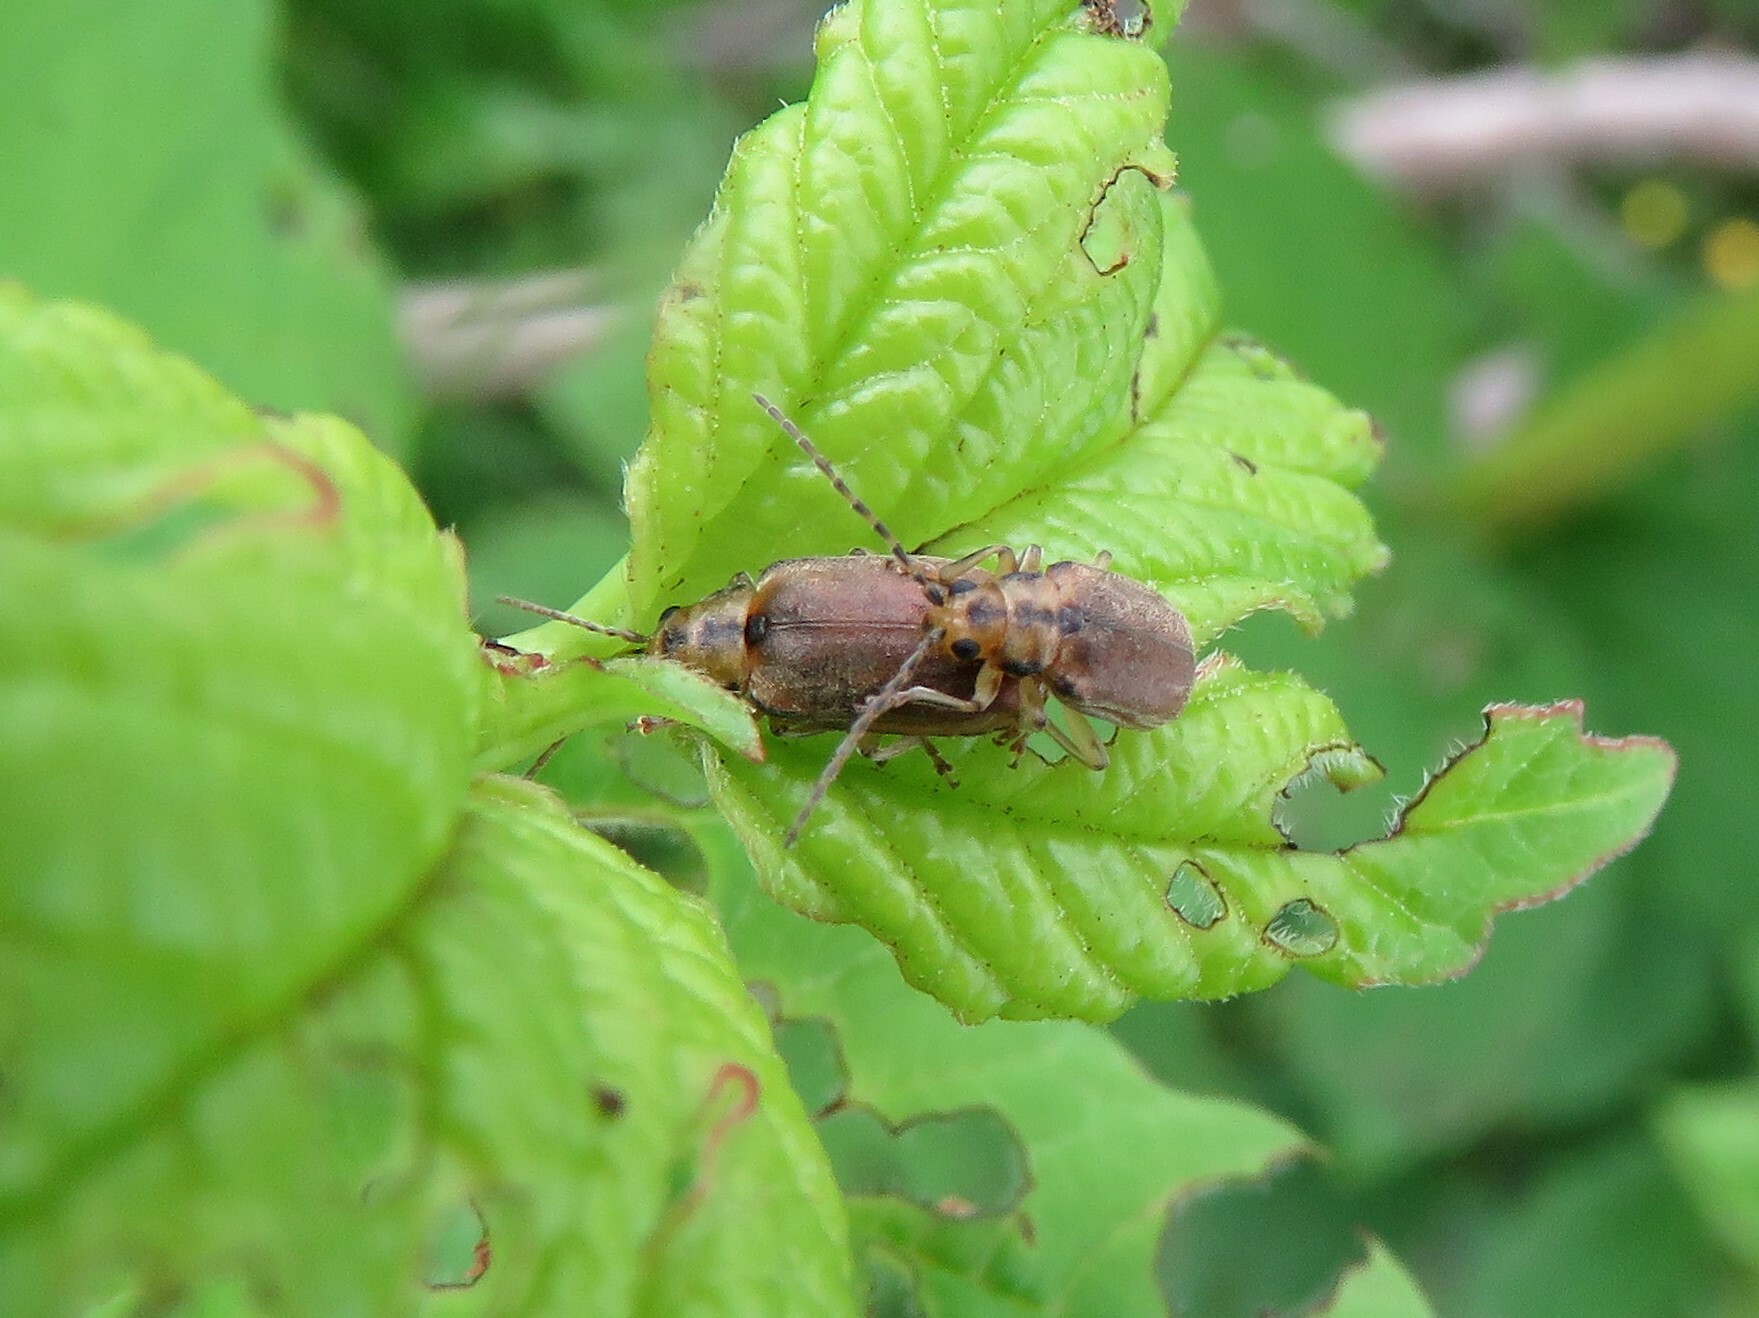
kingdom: Animalia
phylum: Arthropoda
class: Insecta
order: Coleoptera
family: Chrysomelidae
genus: Pyrrhalta
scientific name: Pyrrhalta viburni
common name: Guelder-rose leaf beetle
